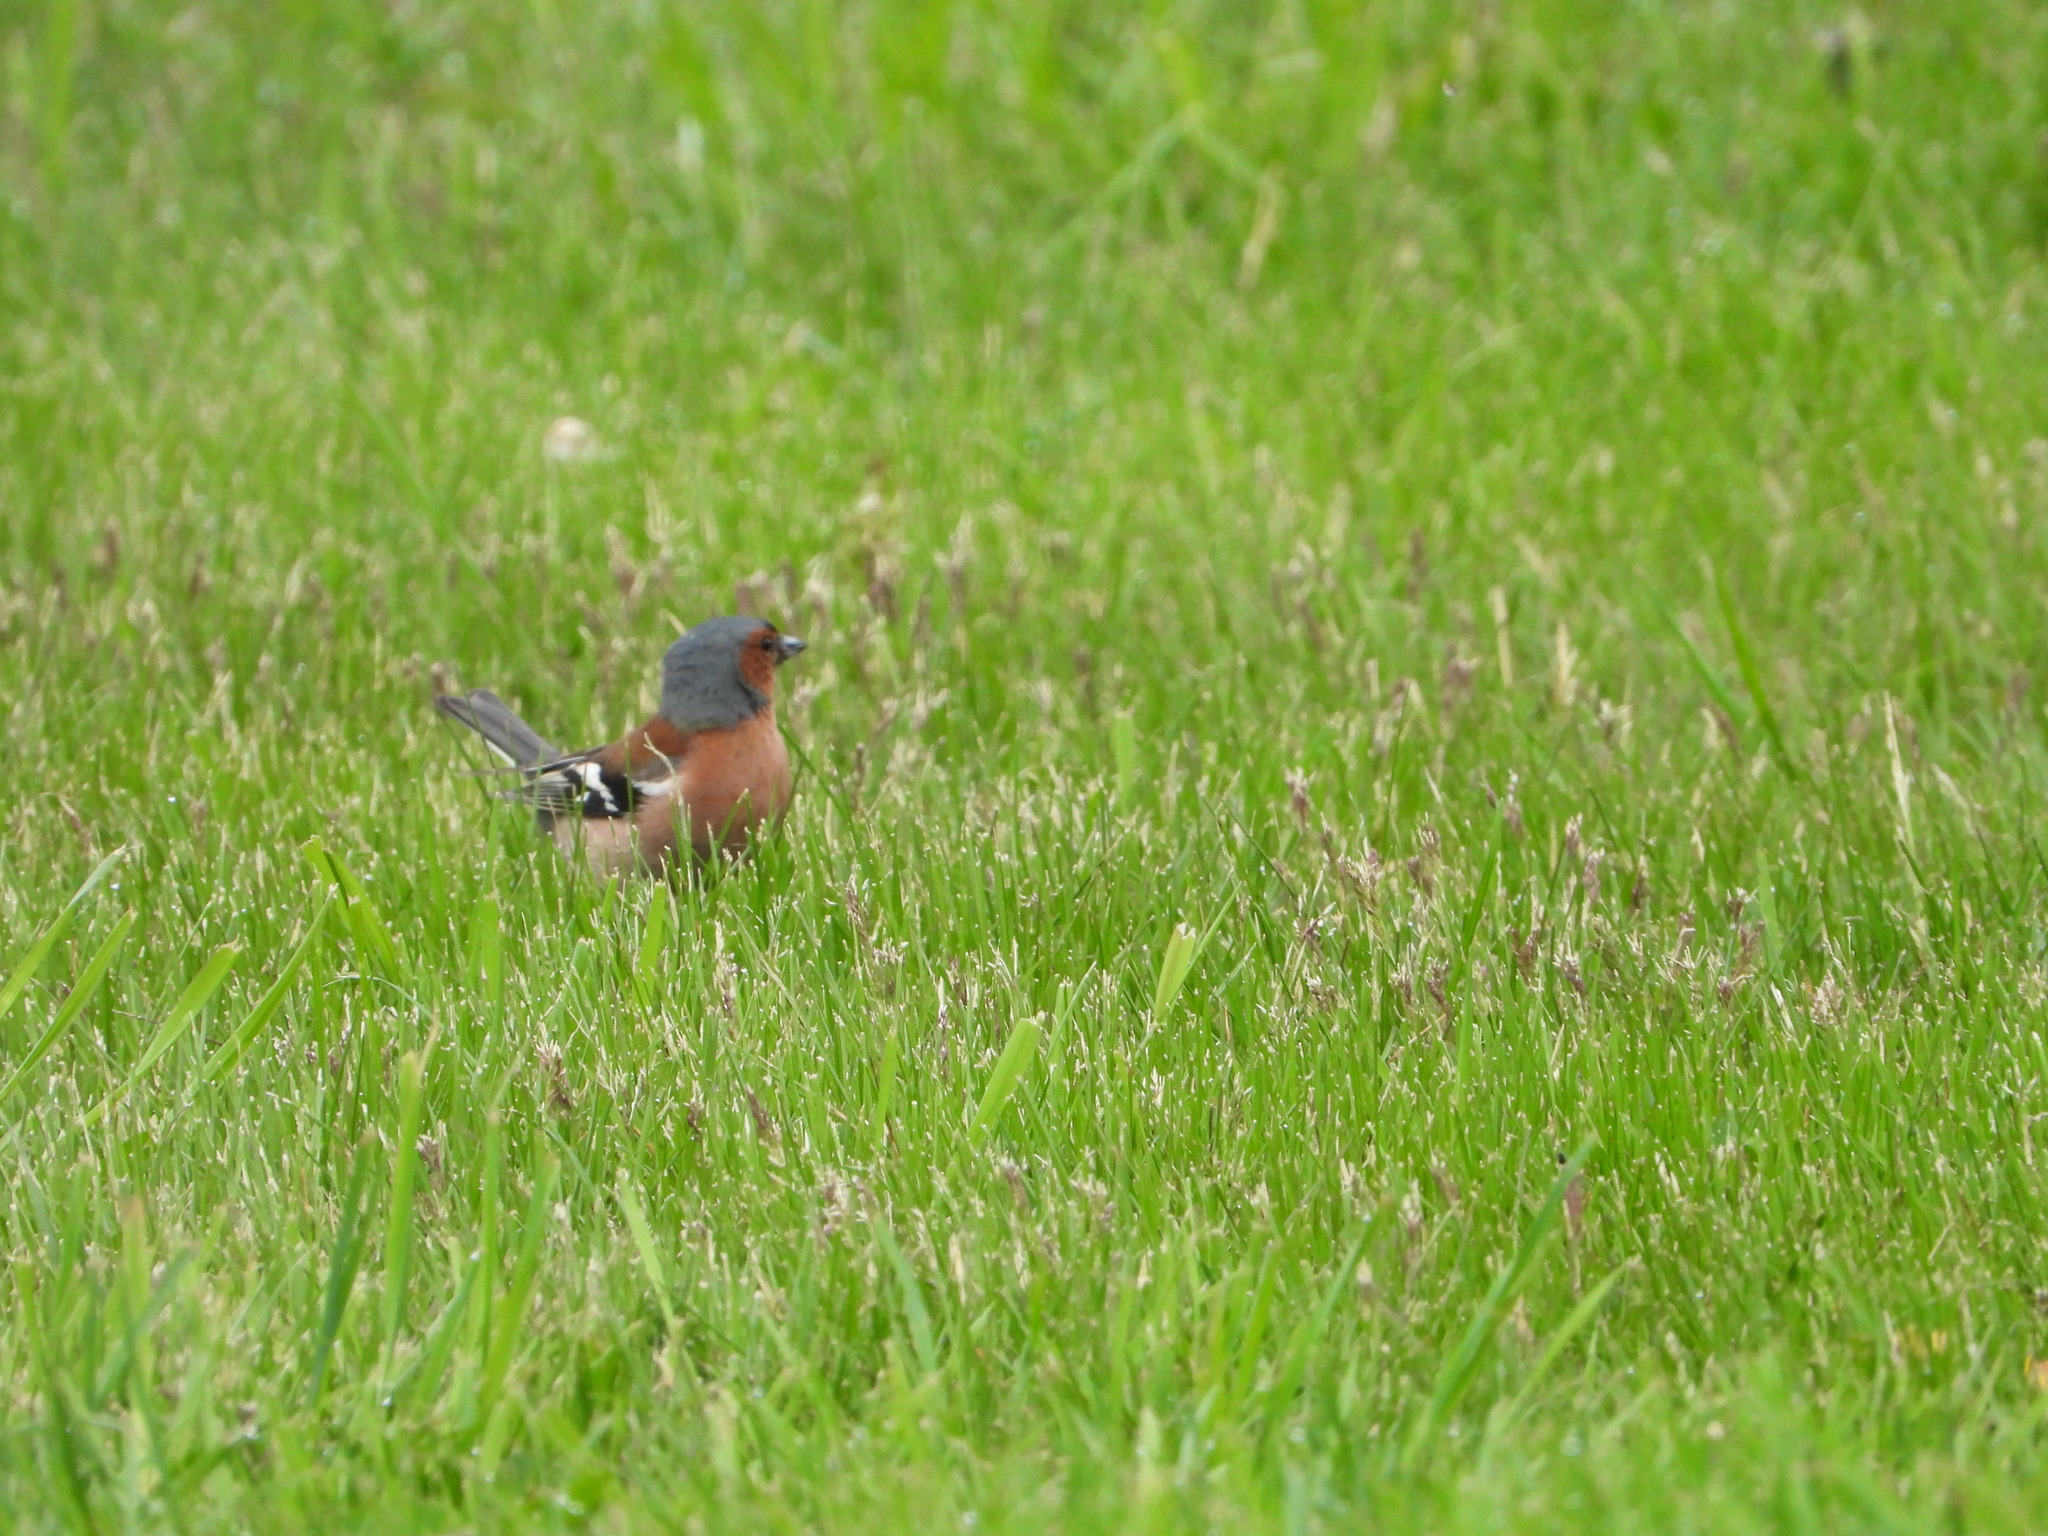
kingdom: Animalia
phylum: Chordata
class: Aves
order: Passeriformes
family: Fringillidae
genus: Fringilla
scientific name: Fringilla coelebs
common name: Common chaffinch
